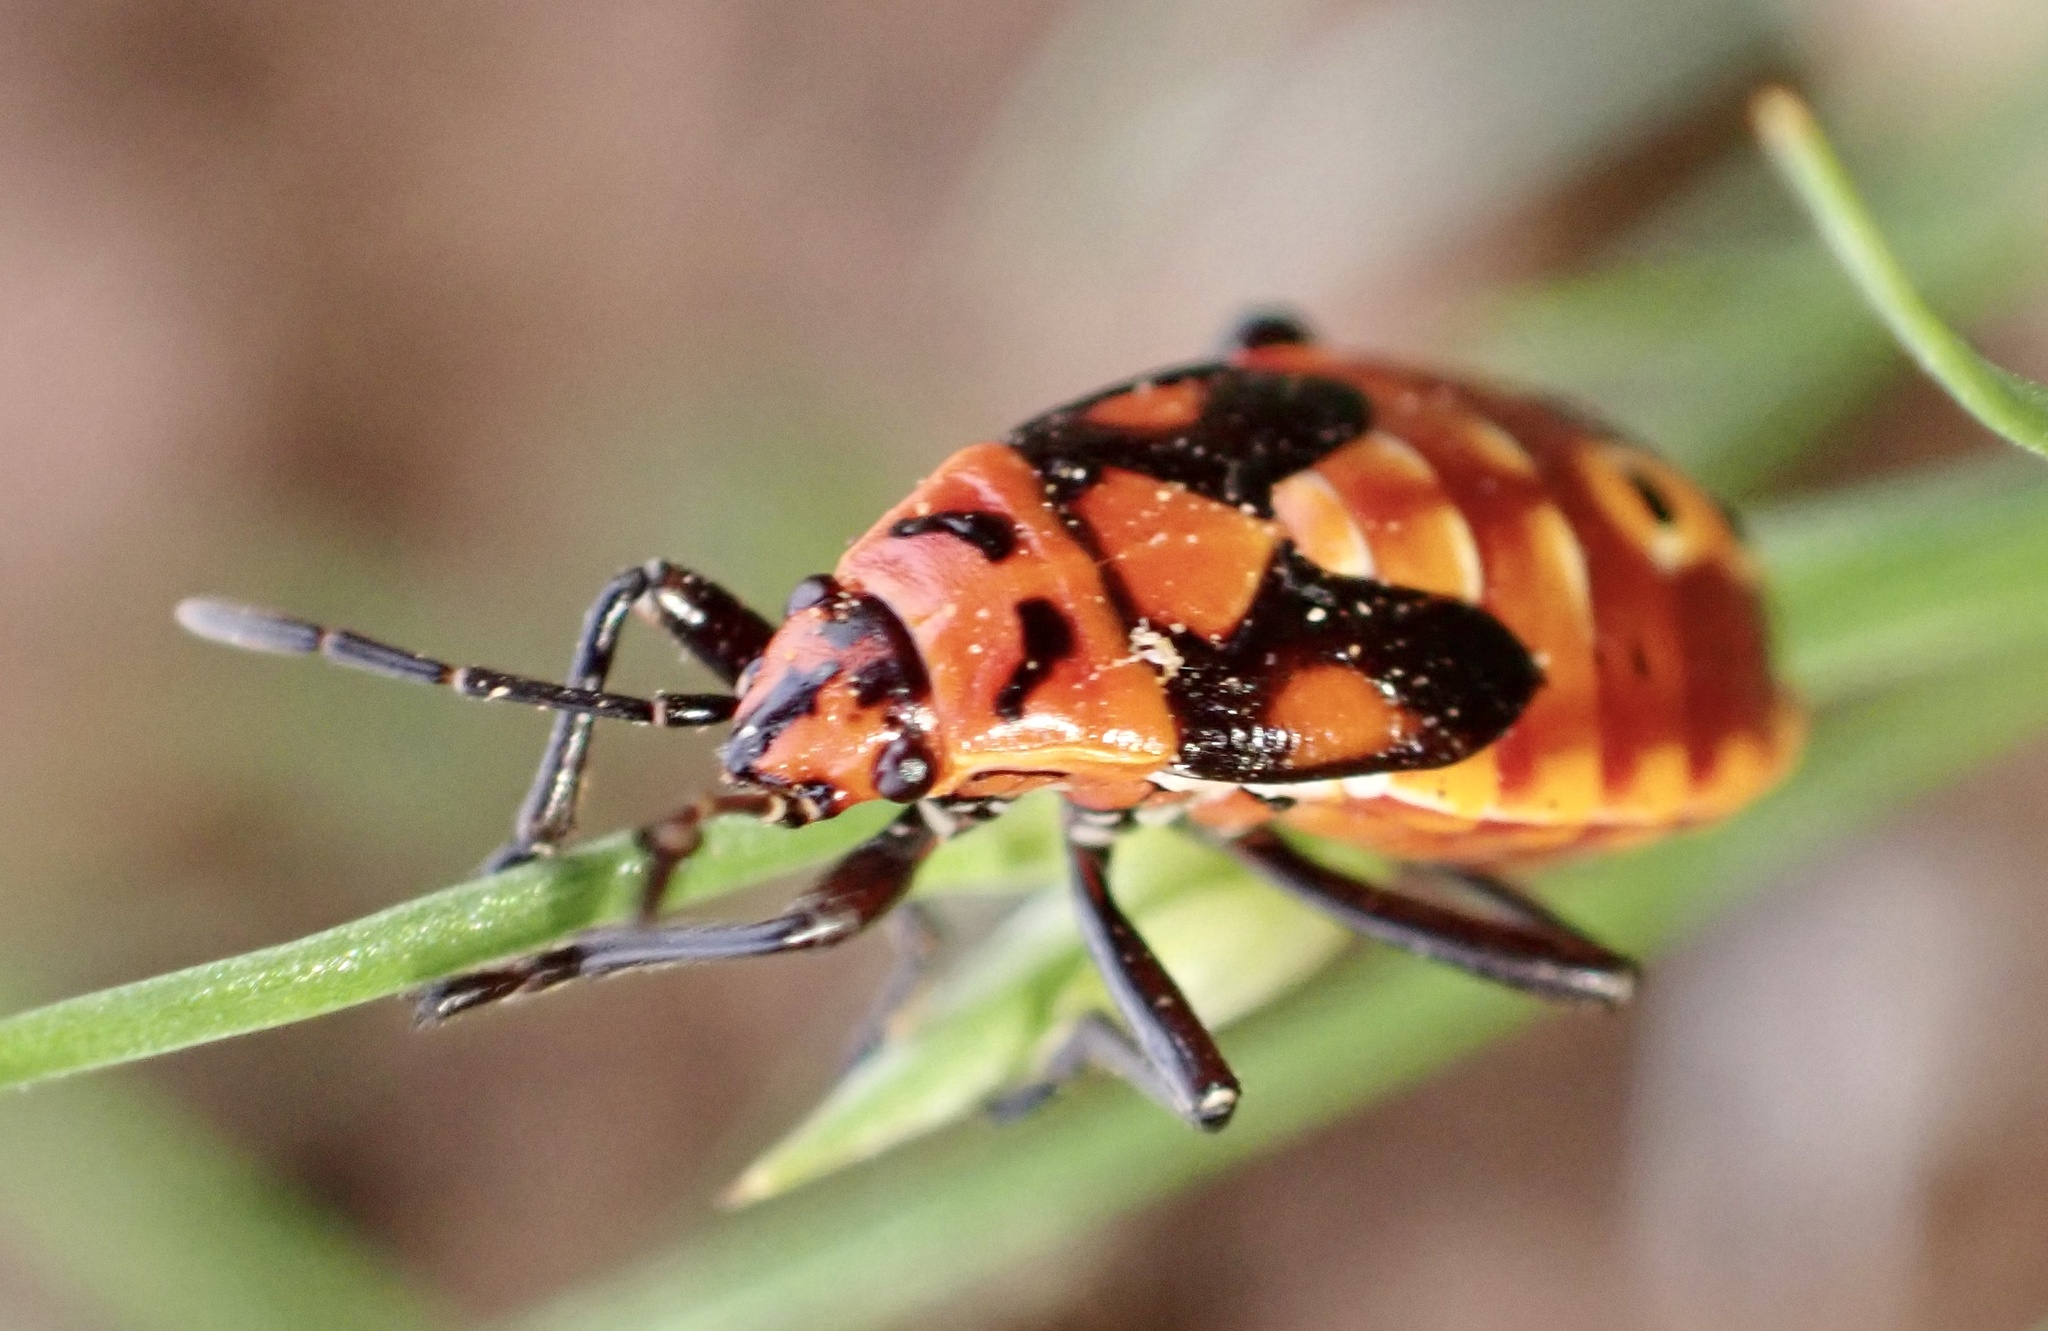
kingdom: Animalia
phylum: Arthropoda
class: Insecta
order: Hemiptera
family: Lygaeidae
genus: Spilostethus
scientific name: Spilostethus pandurus
